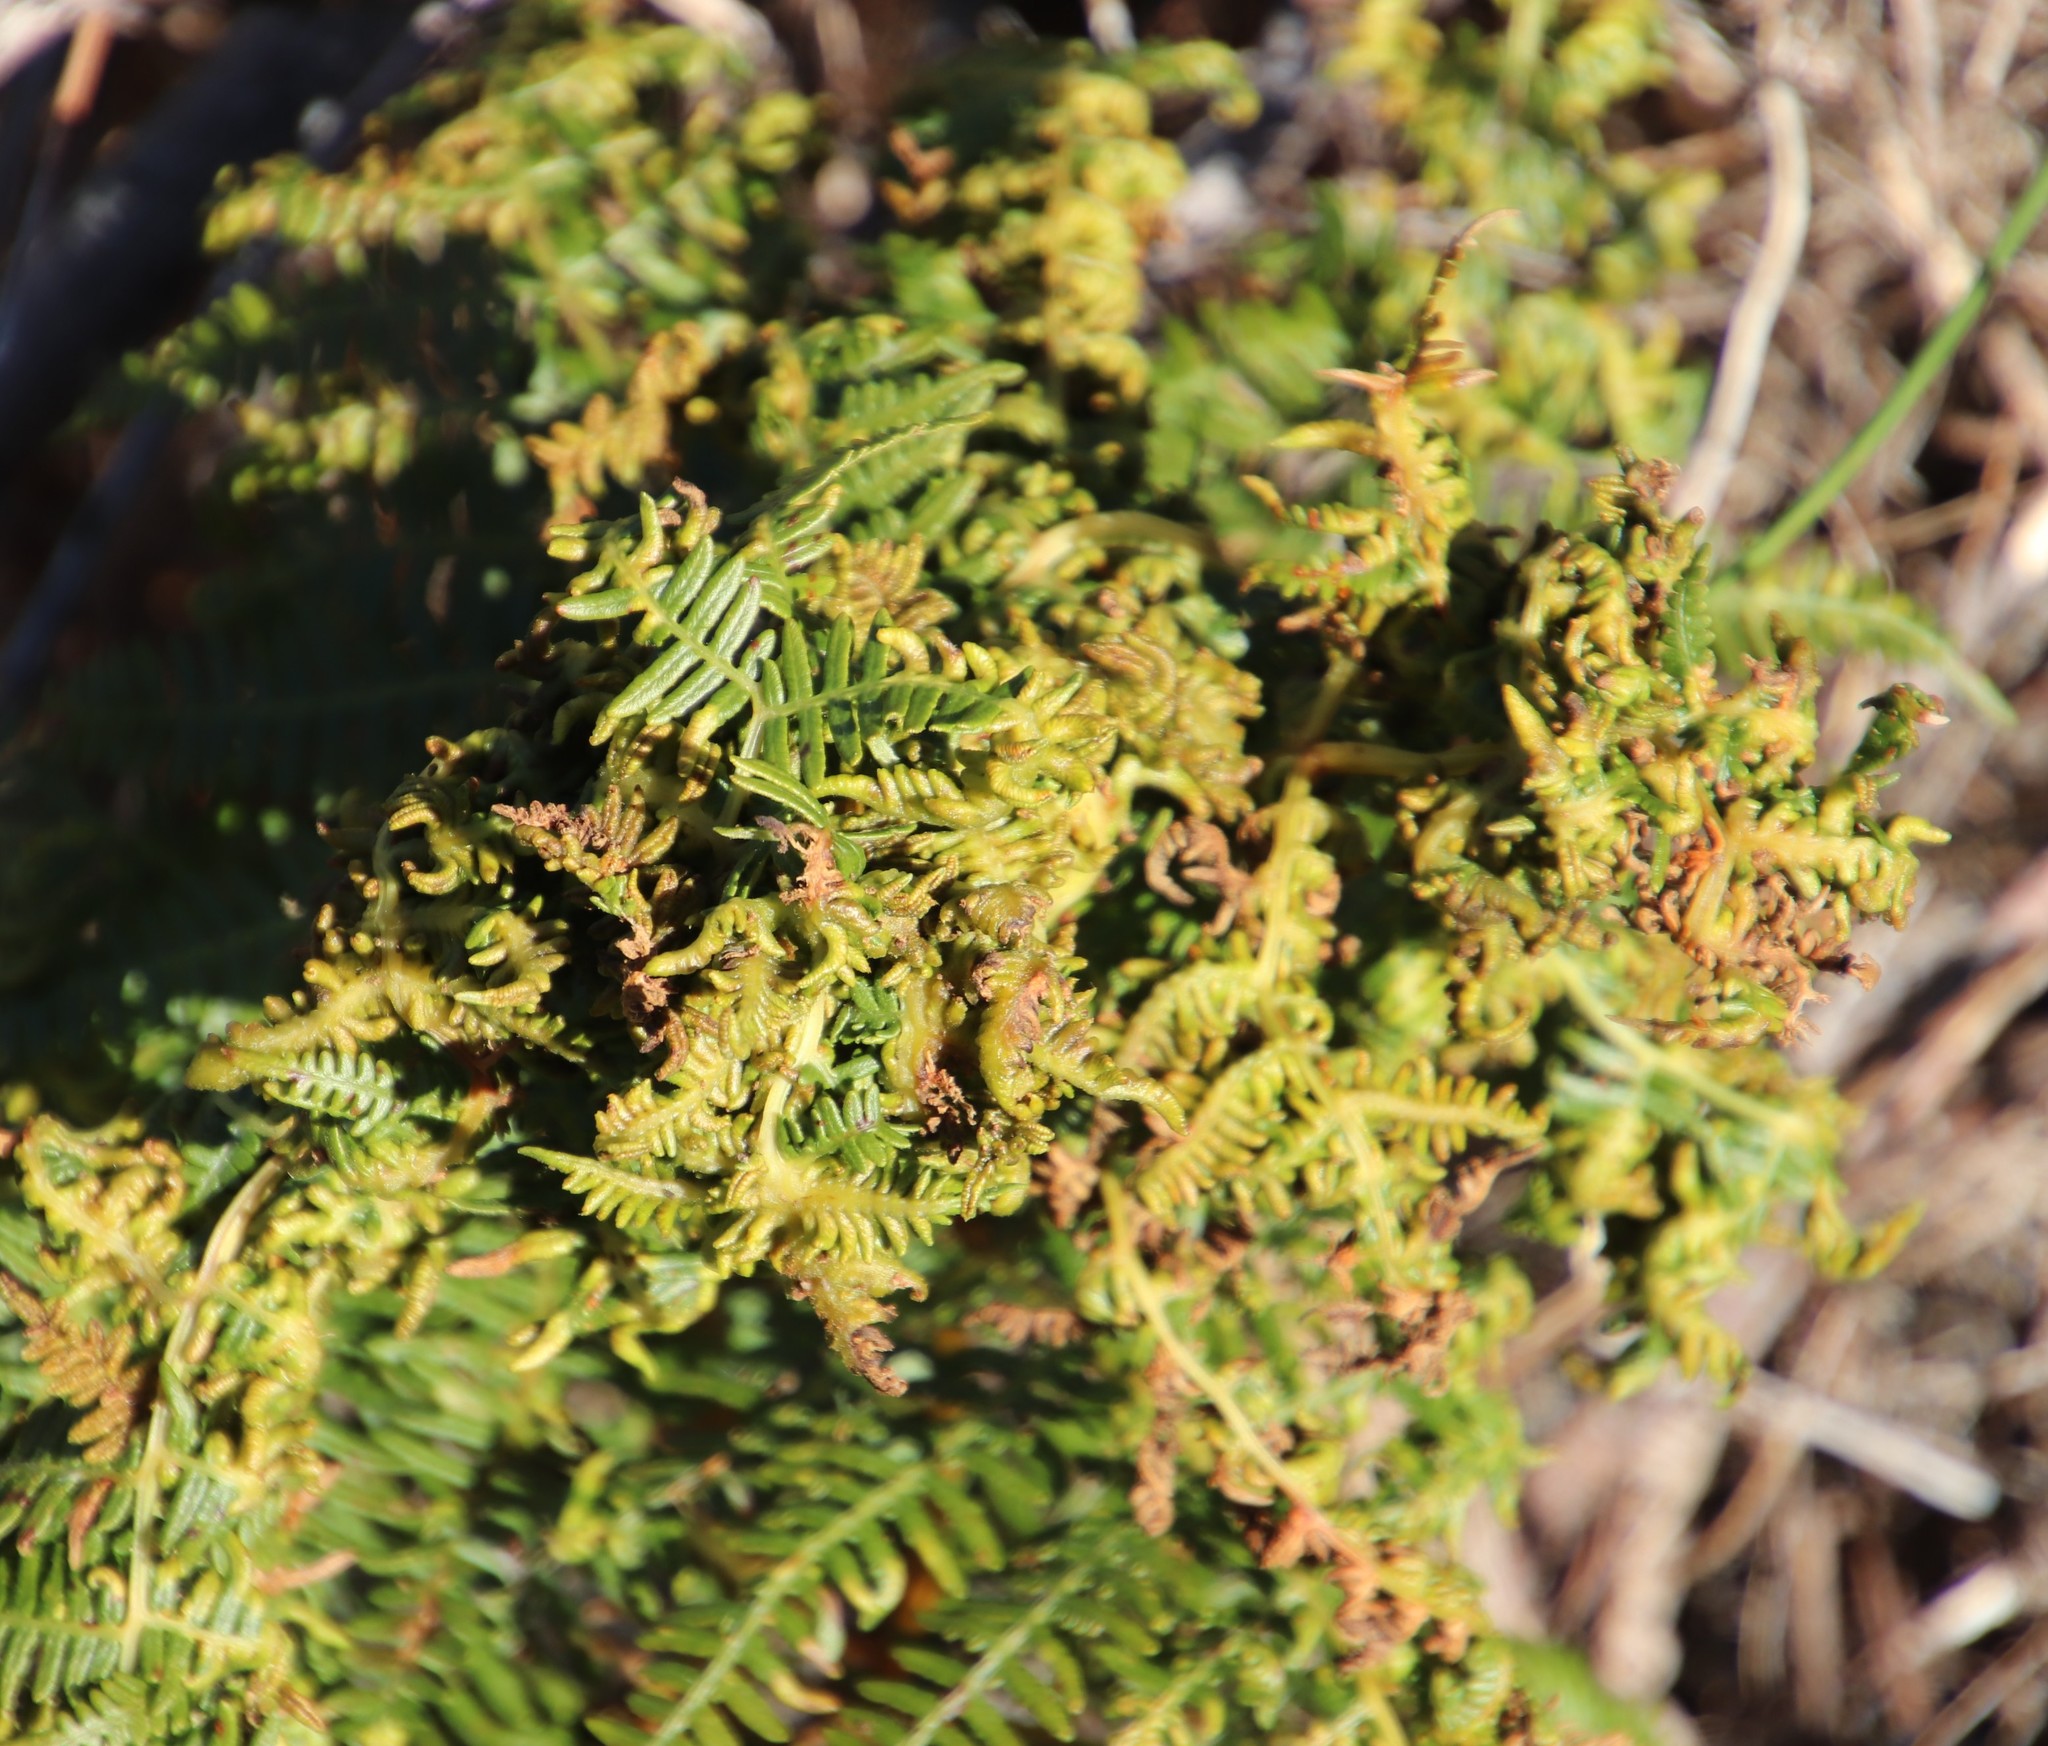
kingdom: Animalia
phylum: Arthropoda
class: Arachnida
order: Trombidiformes
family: Eriophyidae
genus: Eriophyes
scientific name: Eriophyes
